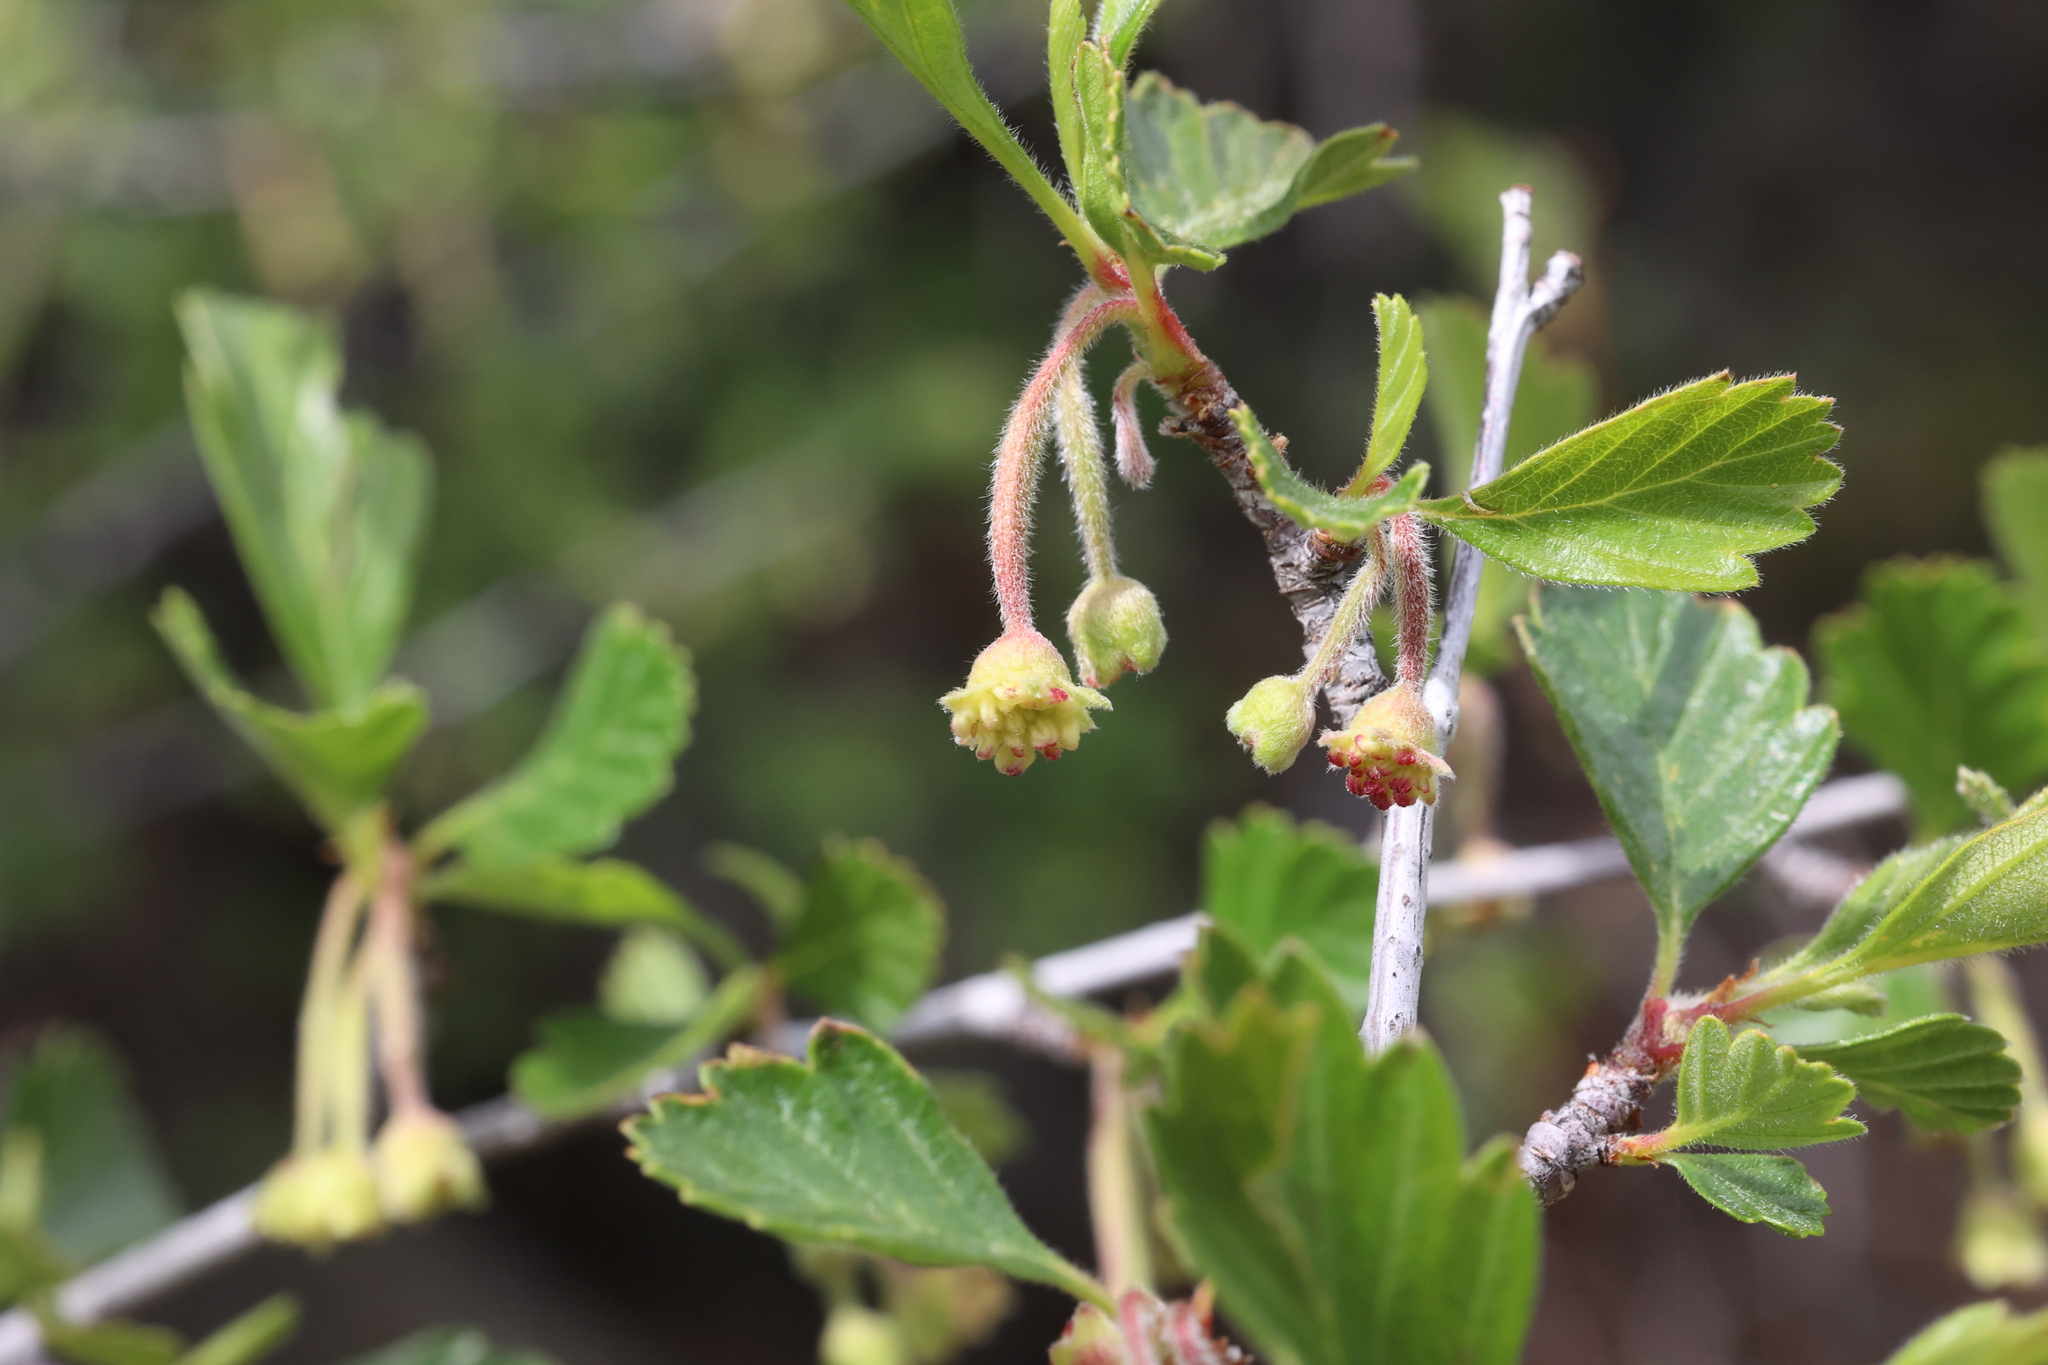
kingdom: Plantae
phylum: Tracheophyta
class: Magnoliopsida
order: Rosales
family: Rosaceae
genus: Cercocarpus
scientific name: Cercocarpus montanus
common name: Alder-leaf cercocarpus
